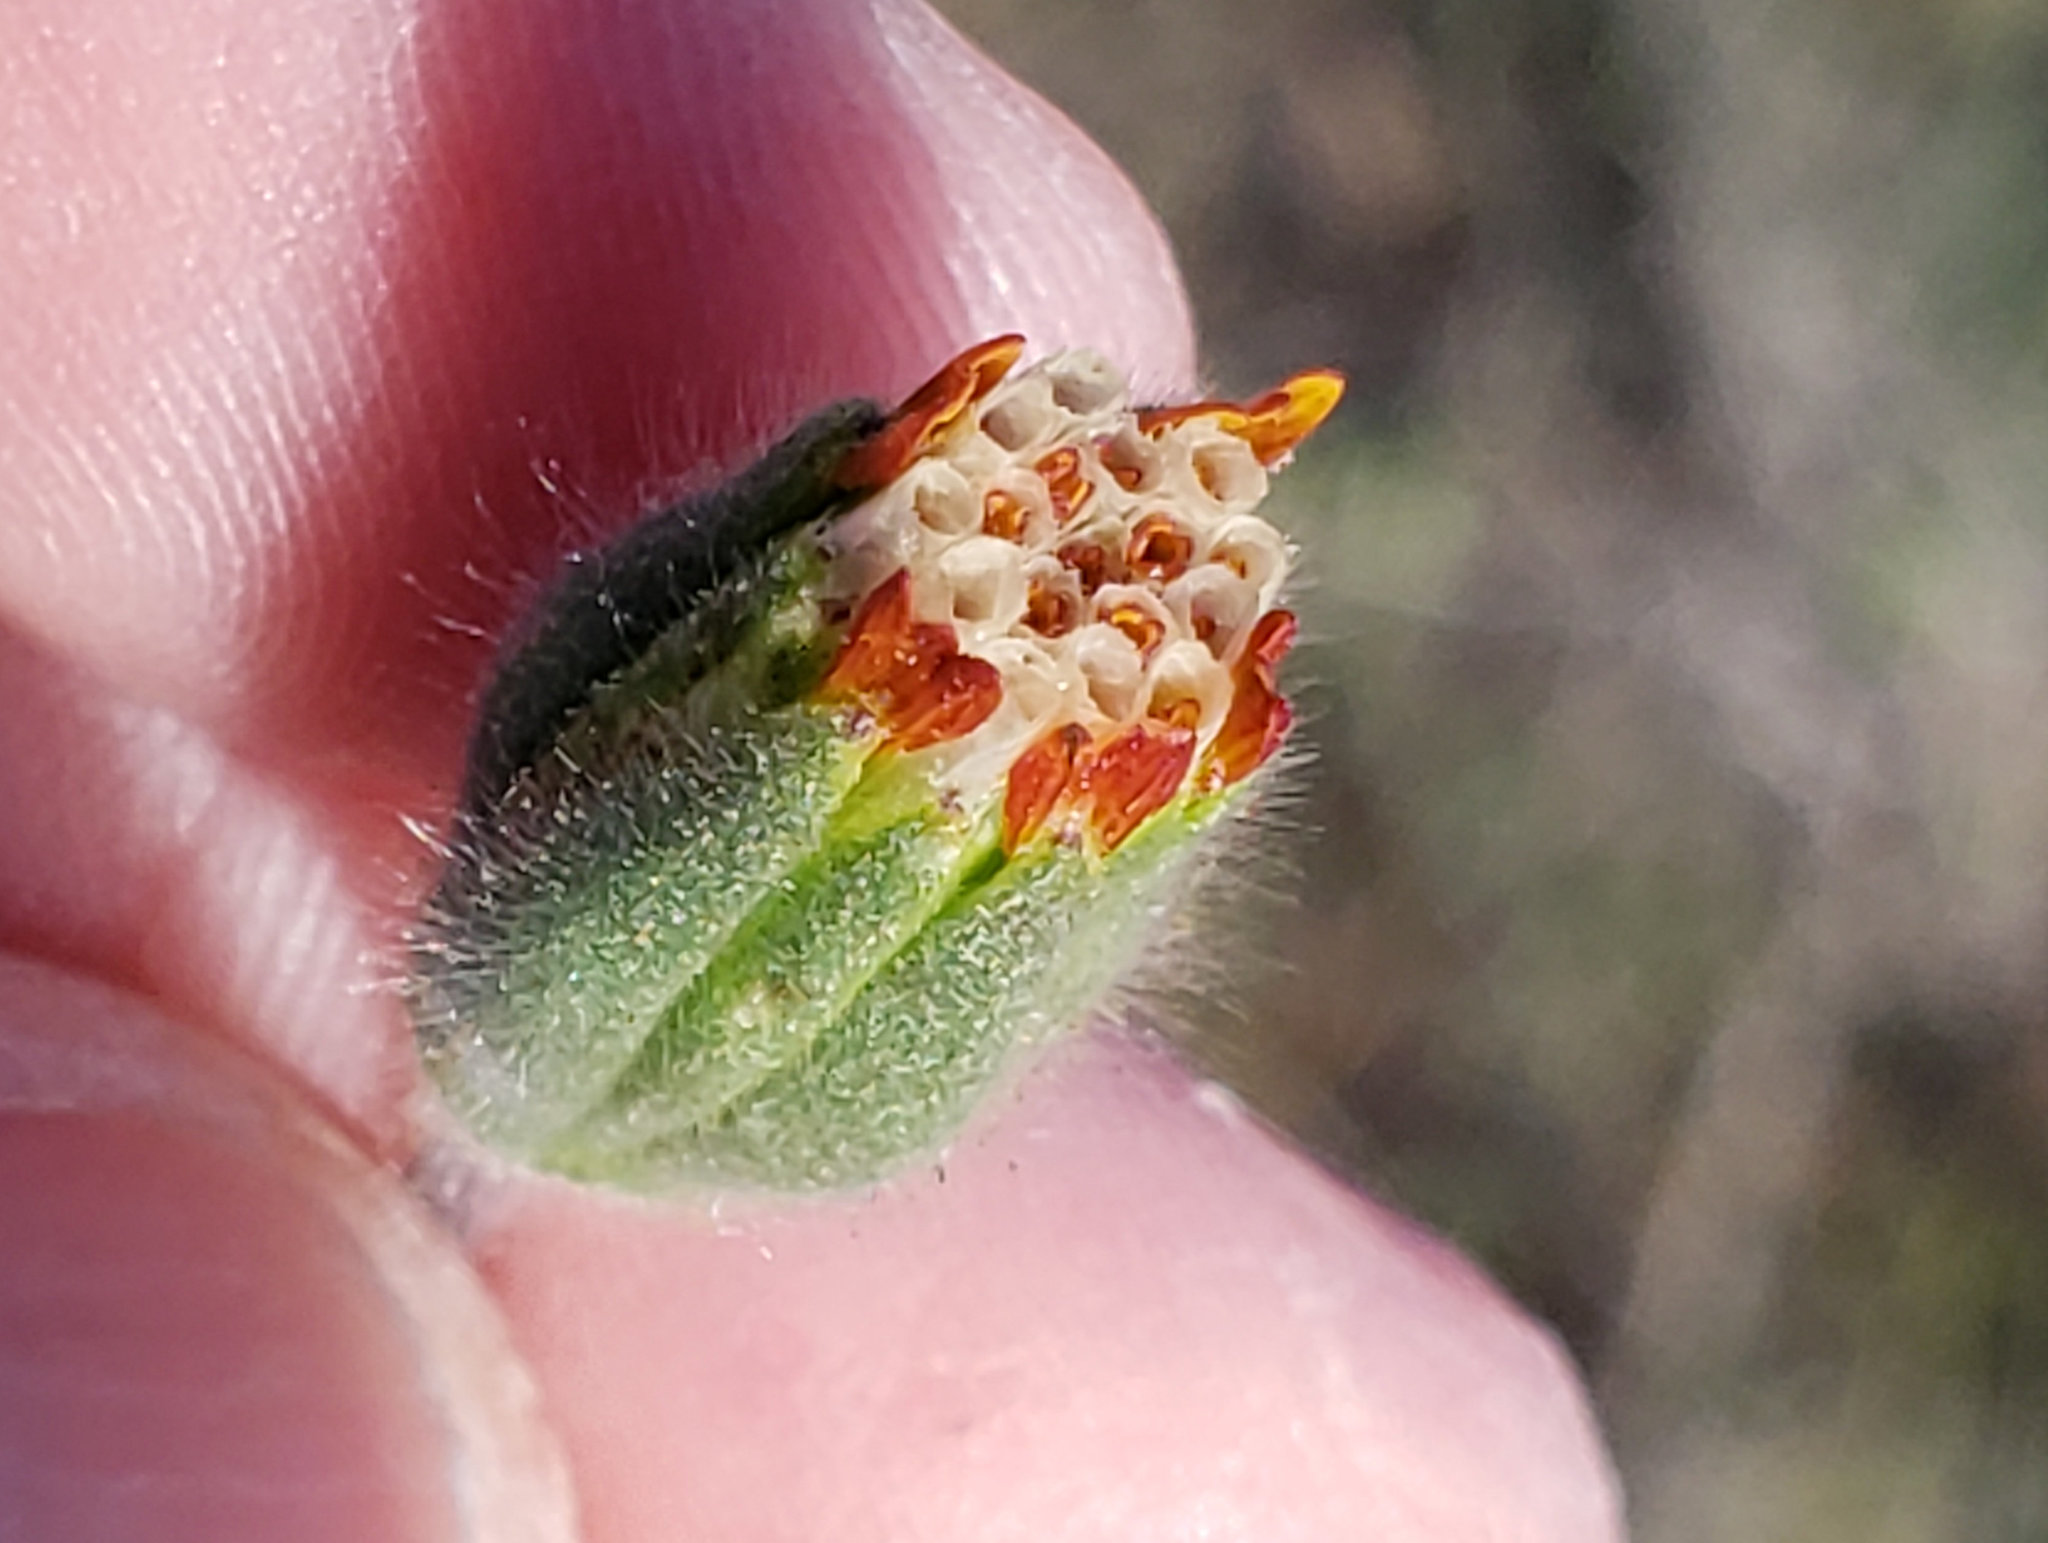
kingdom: Plantae
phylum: Tracheophyta
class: Magnoliopsida
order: Asterales
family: Asteraceae
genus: Achyrachaena
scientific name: Achyrachaena mollis
